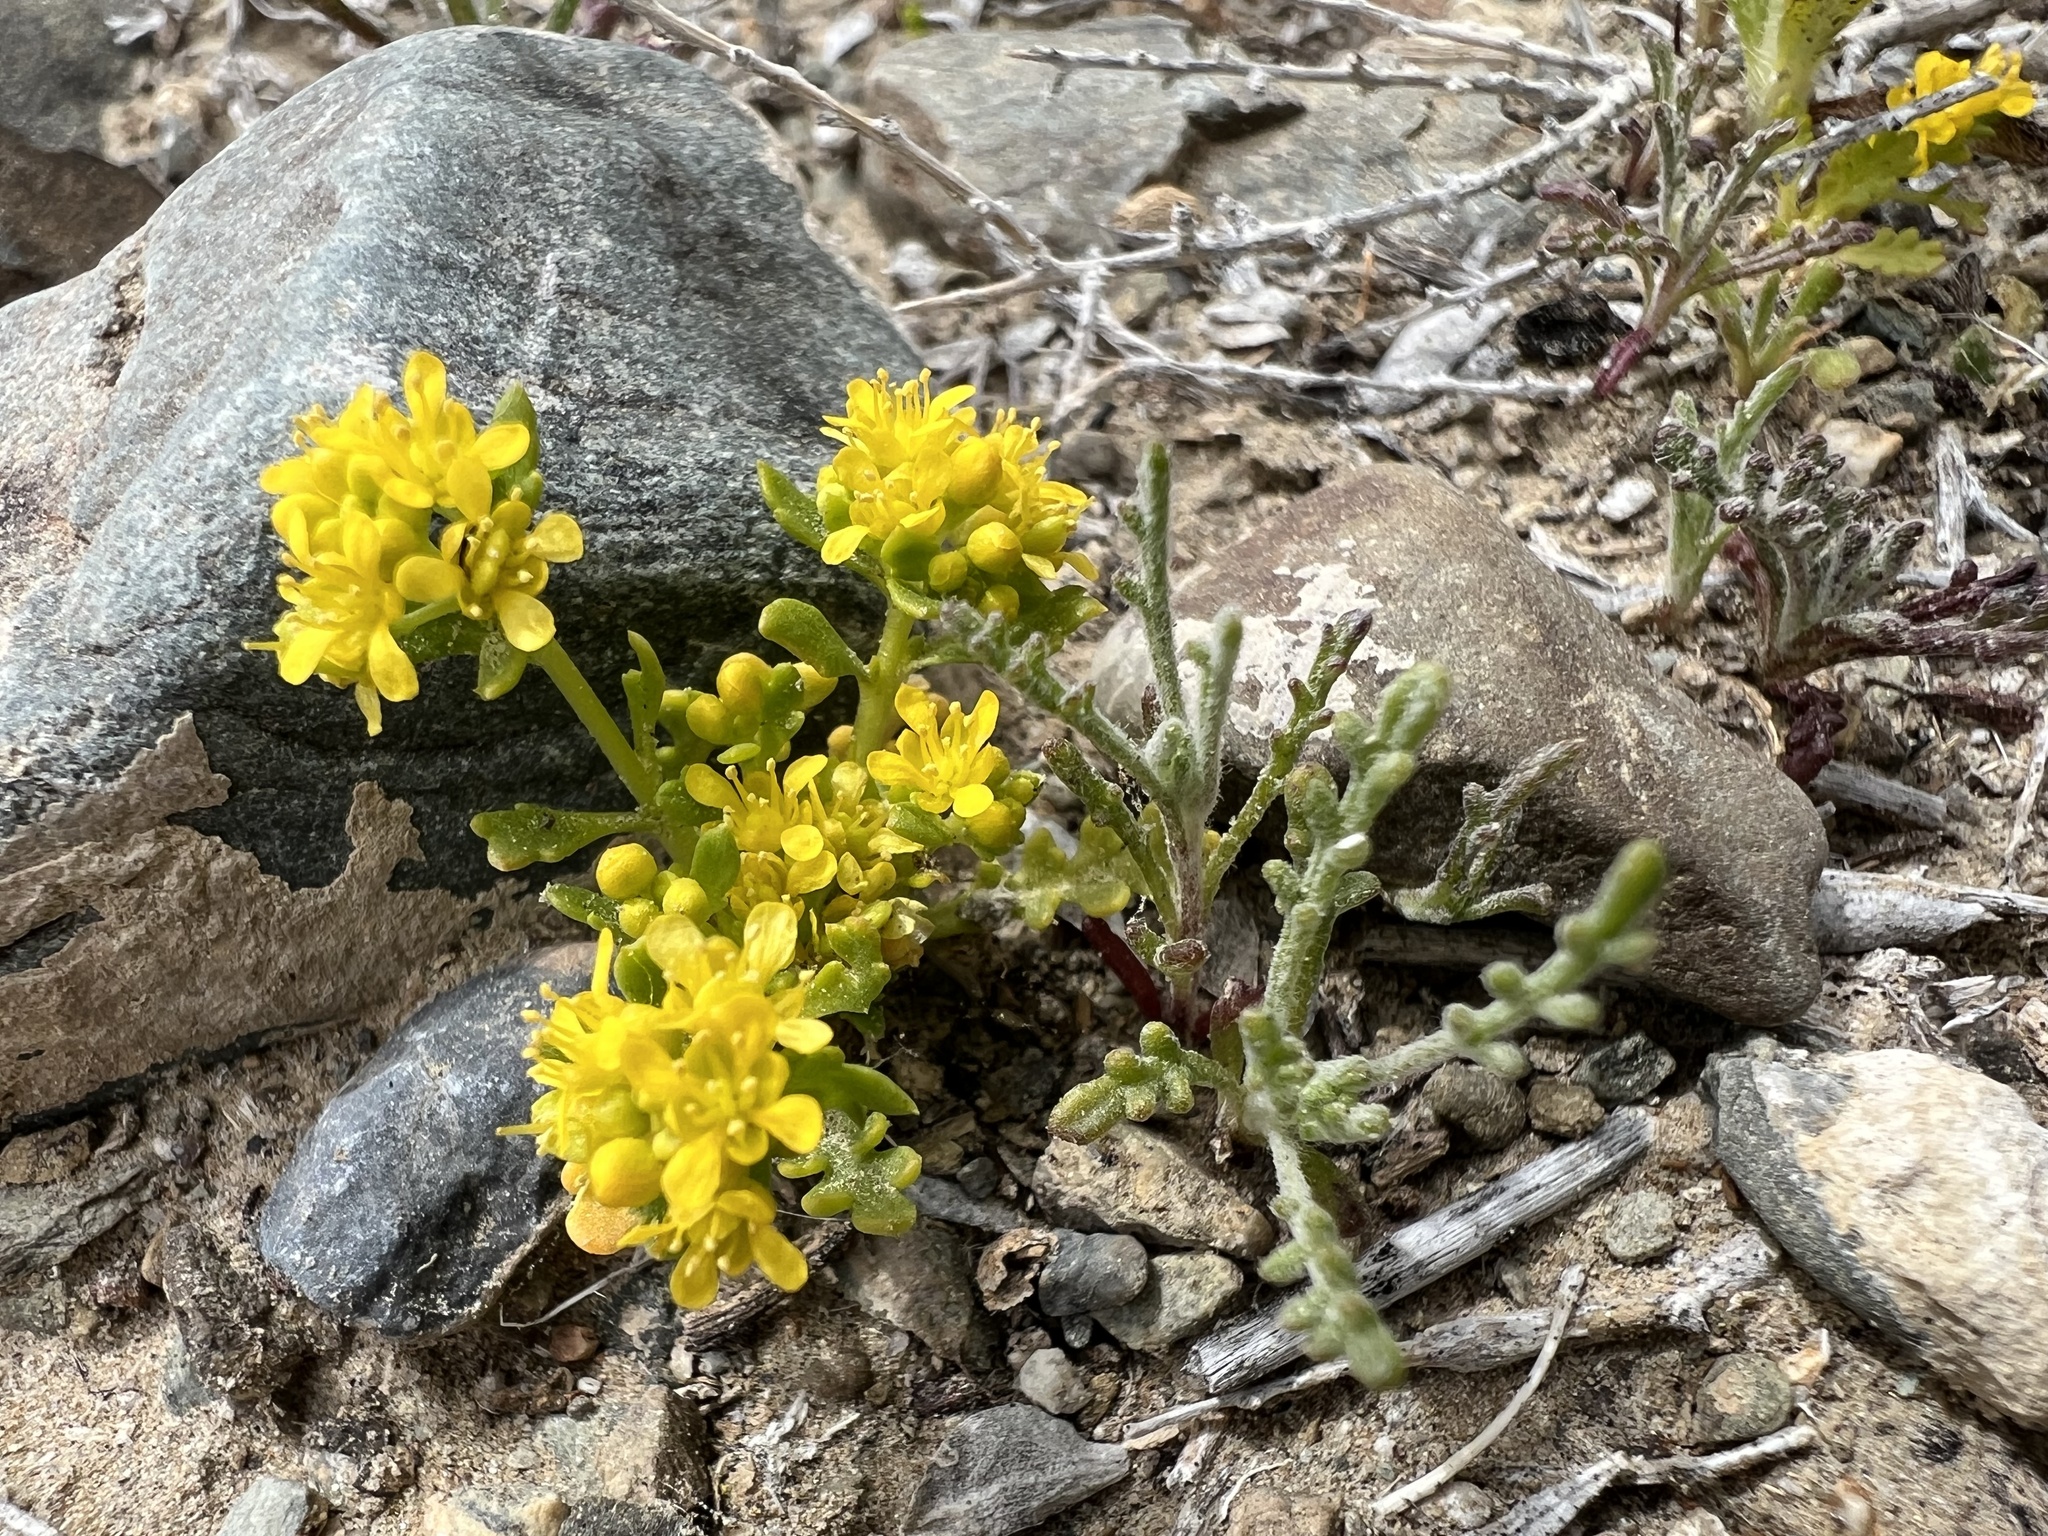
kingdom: Plantae
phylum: Tracheophyta
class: Magnoliopsida
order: Brassicales
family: Brassicaceae
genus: Lepidium
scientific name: Lepidium flavum
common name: Yellow pepperwort
